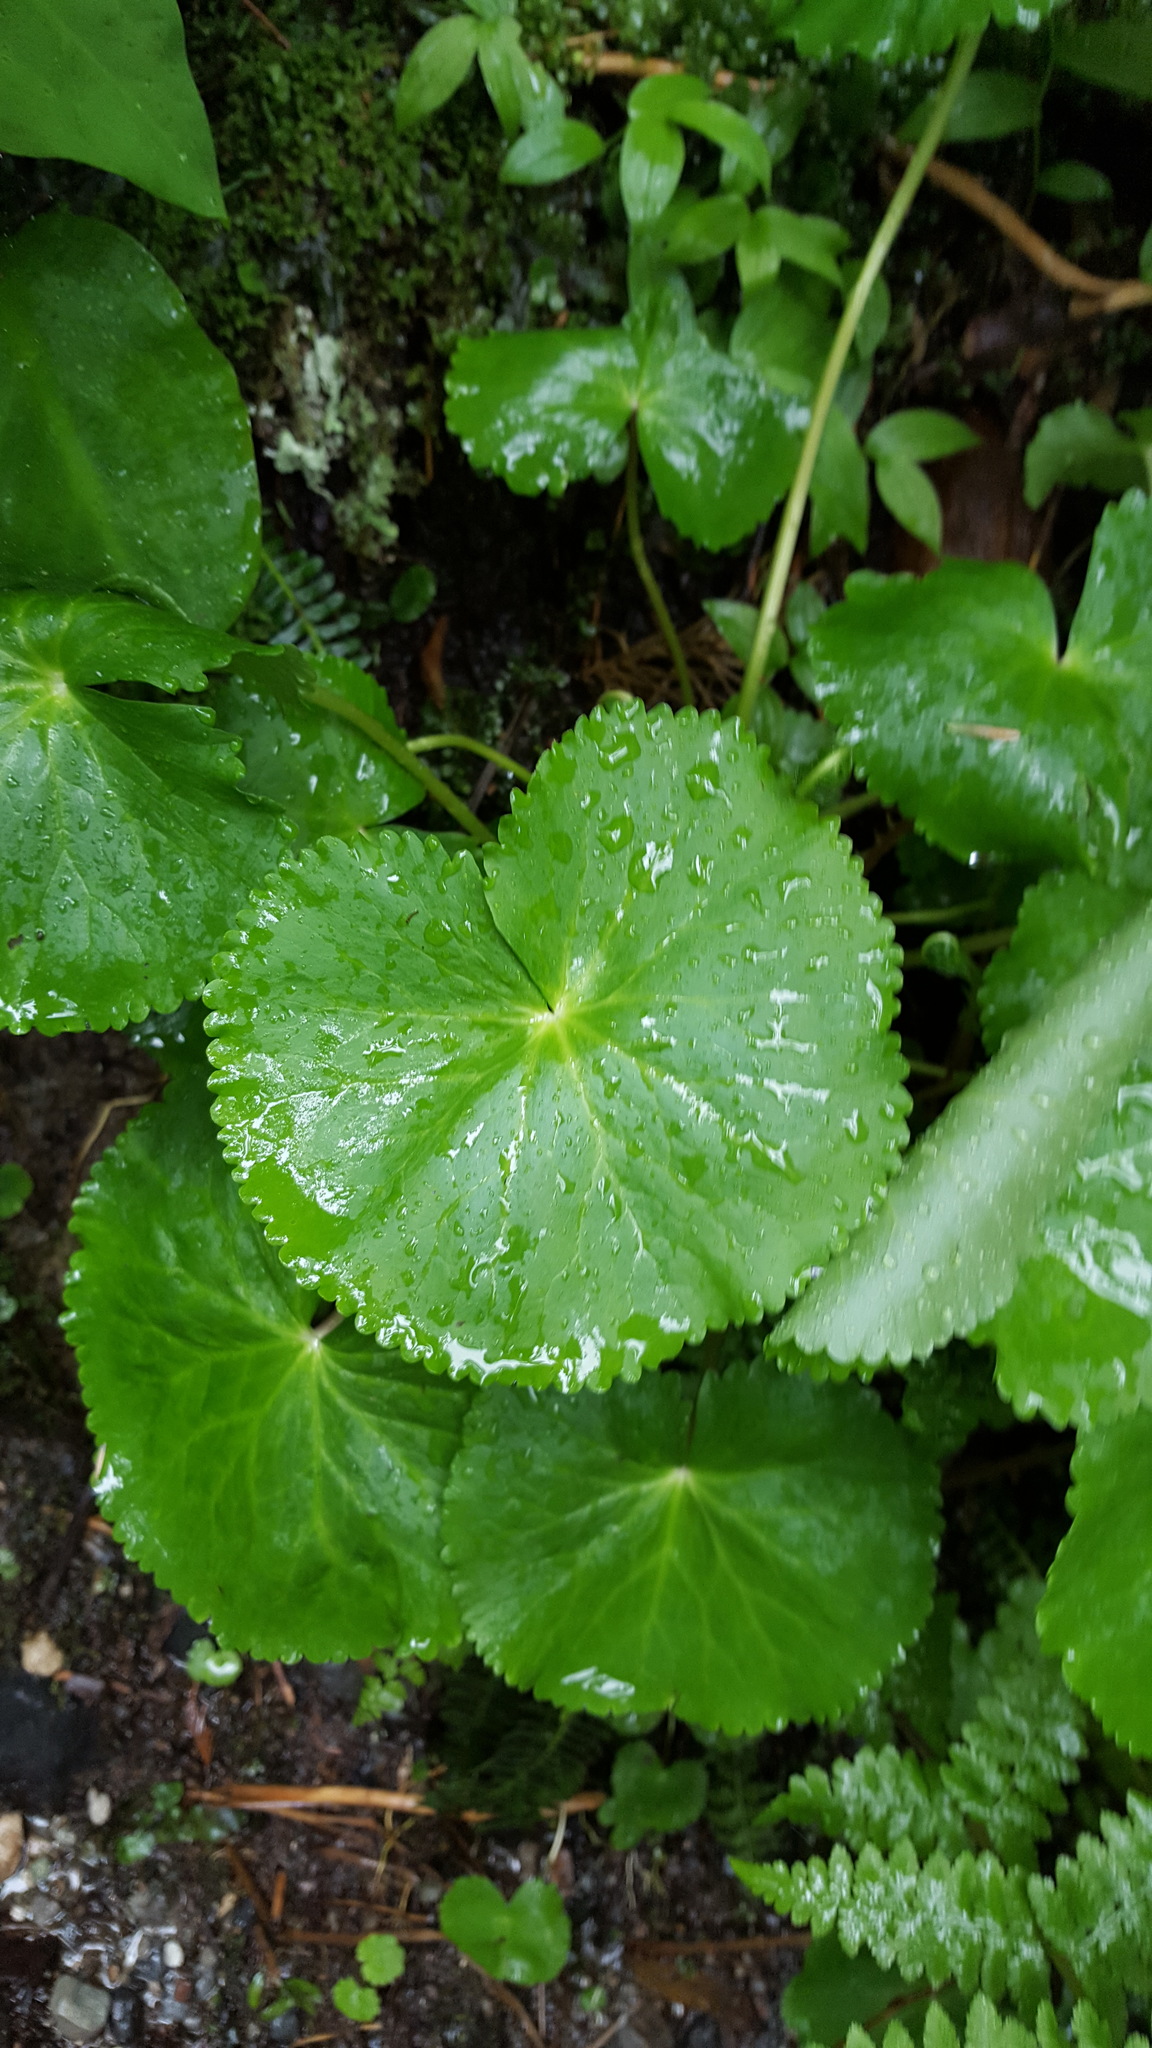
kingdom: Plantae
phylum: Tracheophyta
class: Magnoliopsida
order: Ranunculales
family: Ranunculaceae
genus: Caltha
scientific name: Caltha biflora
